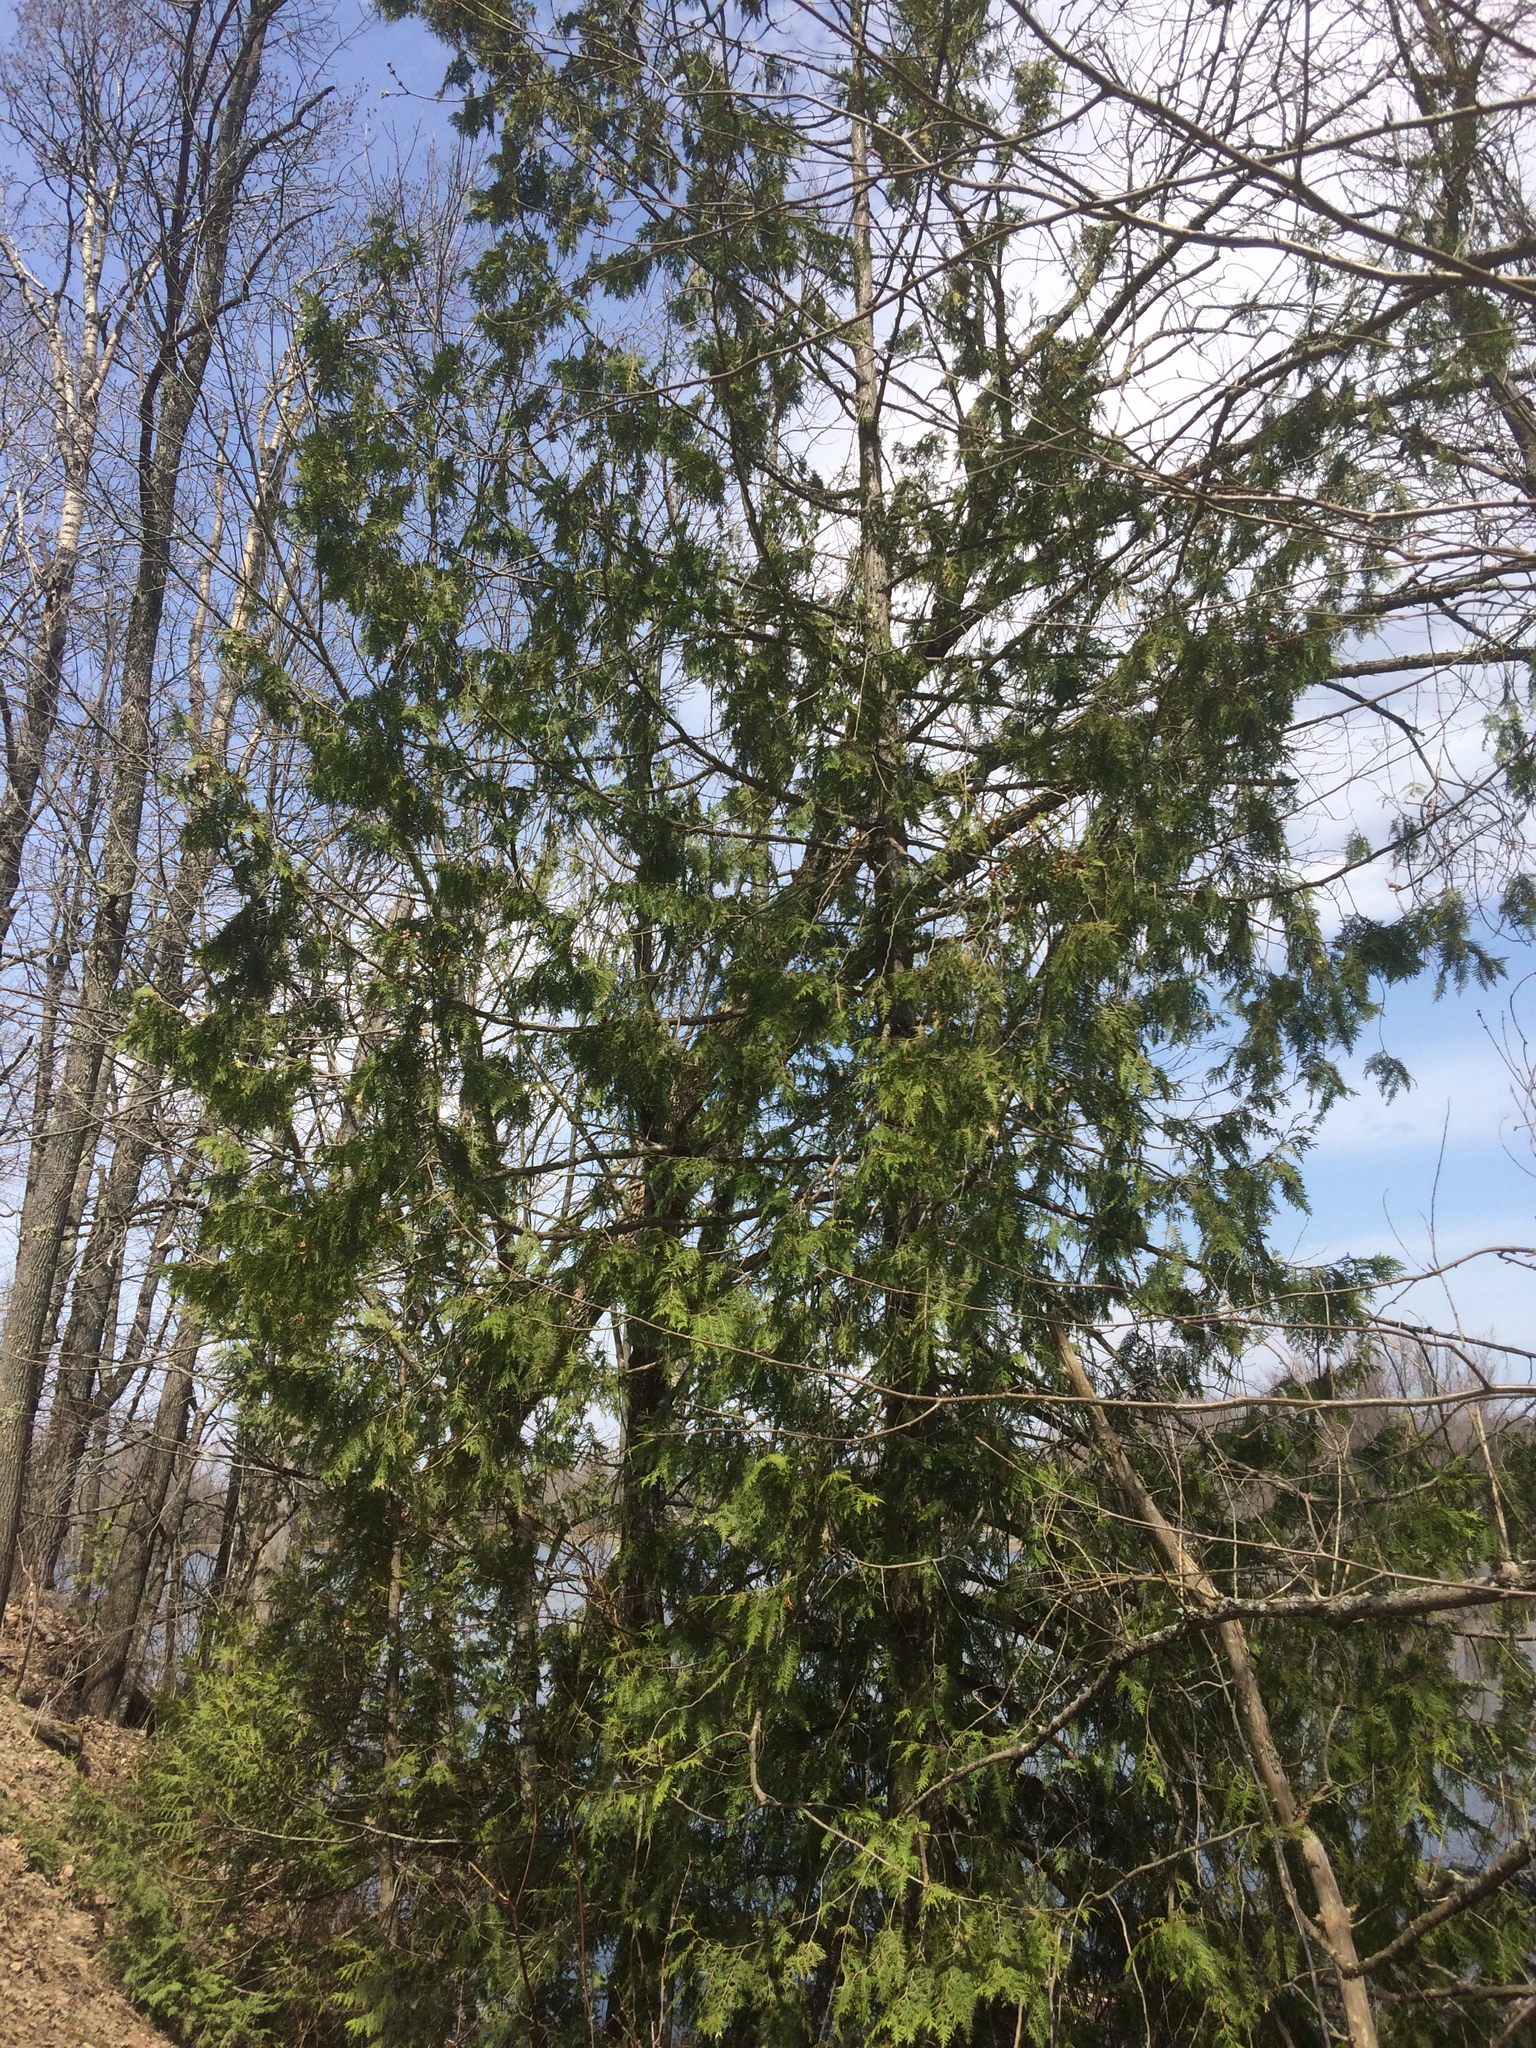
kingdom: Plantae
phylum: Tracheophyta
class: Pinopsida
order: Pinales
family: Cupressaceae
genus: Thuja
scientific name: Thuja occidentalis
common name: Northern white-cedar
